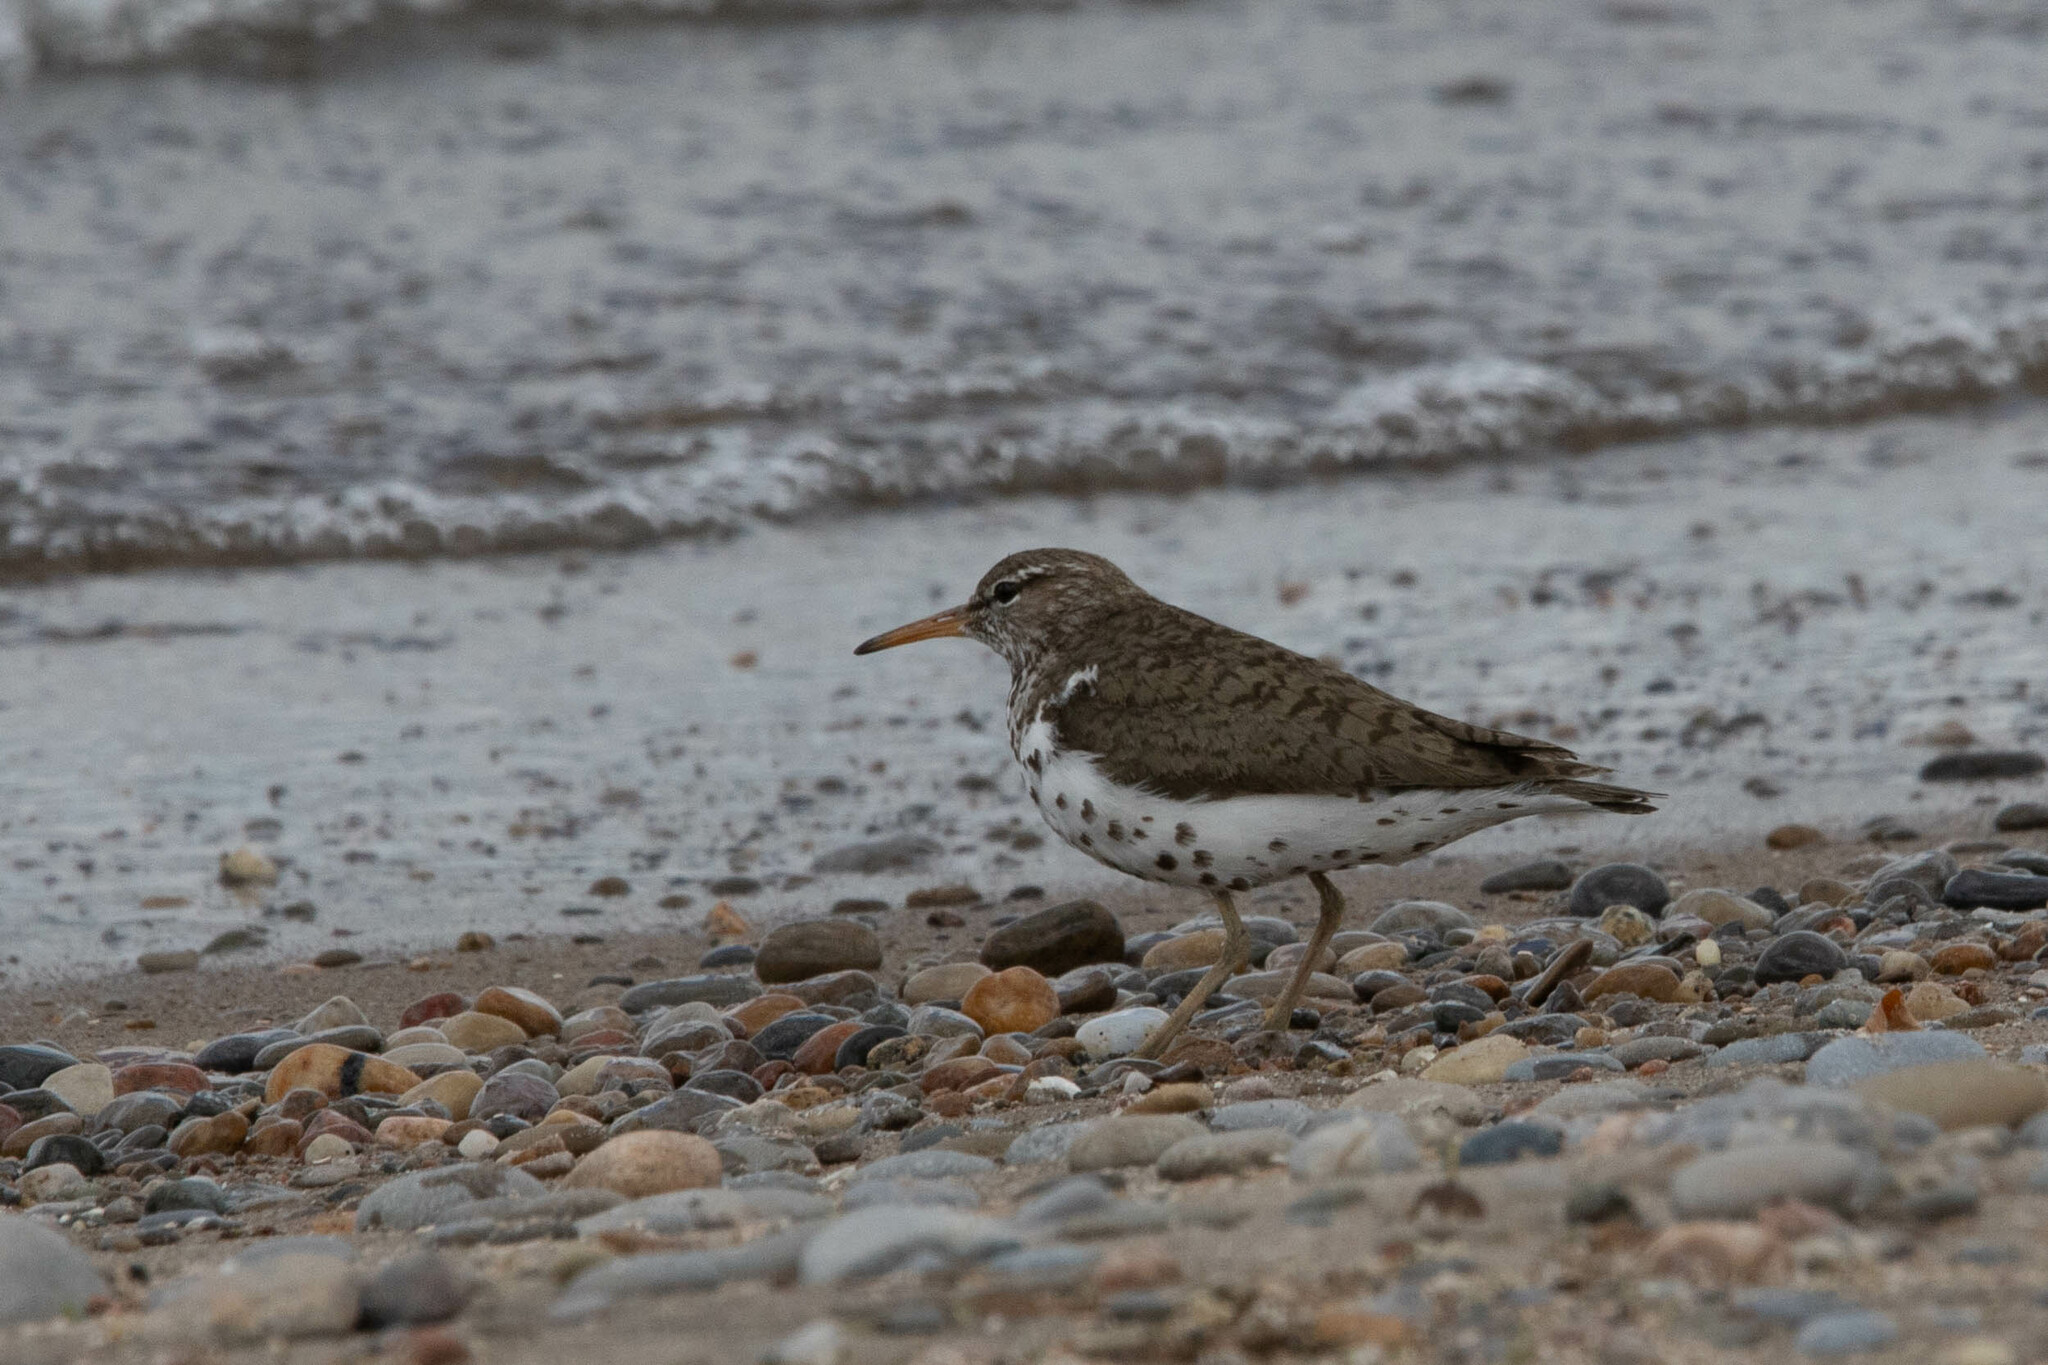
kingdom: Animalia
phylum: Chordata
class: Aves
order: Charadriiformes
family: Scolopacidae
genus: Actitis
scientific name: Actitis macularius
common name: Spotted sandpiper
